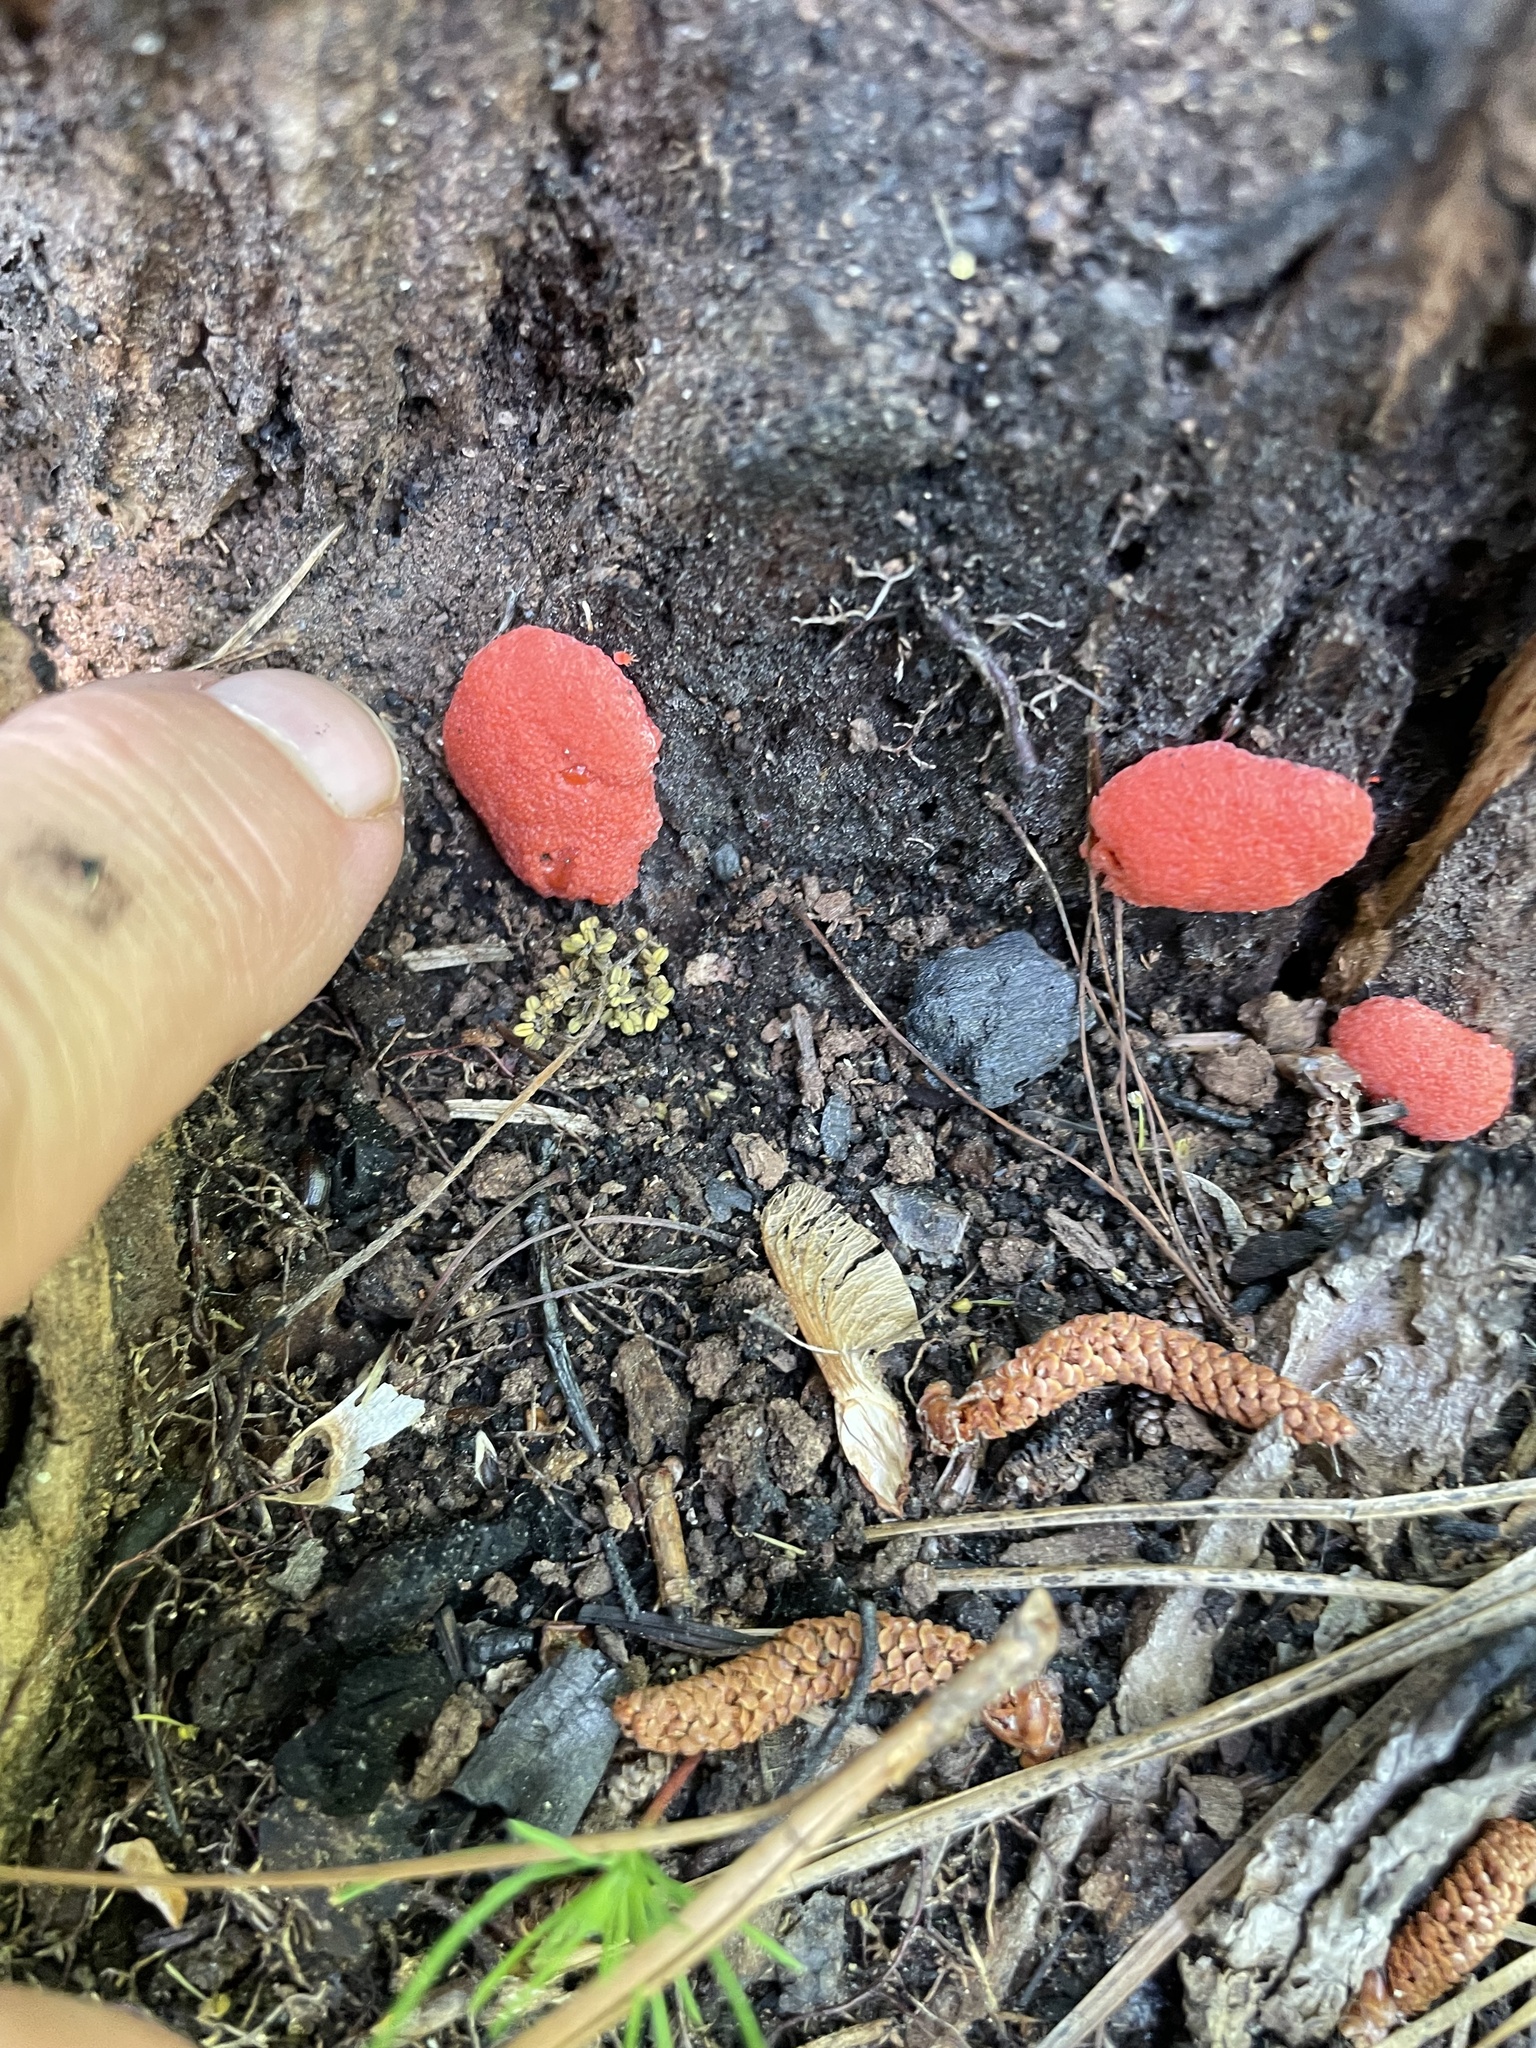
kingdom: Protozoa
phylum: Mycetozoa
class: Myxomycetes
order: Cribrariales
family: Tubiferaceae
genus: Tubifera
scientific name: Tubifera ferruginosa
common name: Red raspberry slime mold
